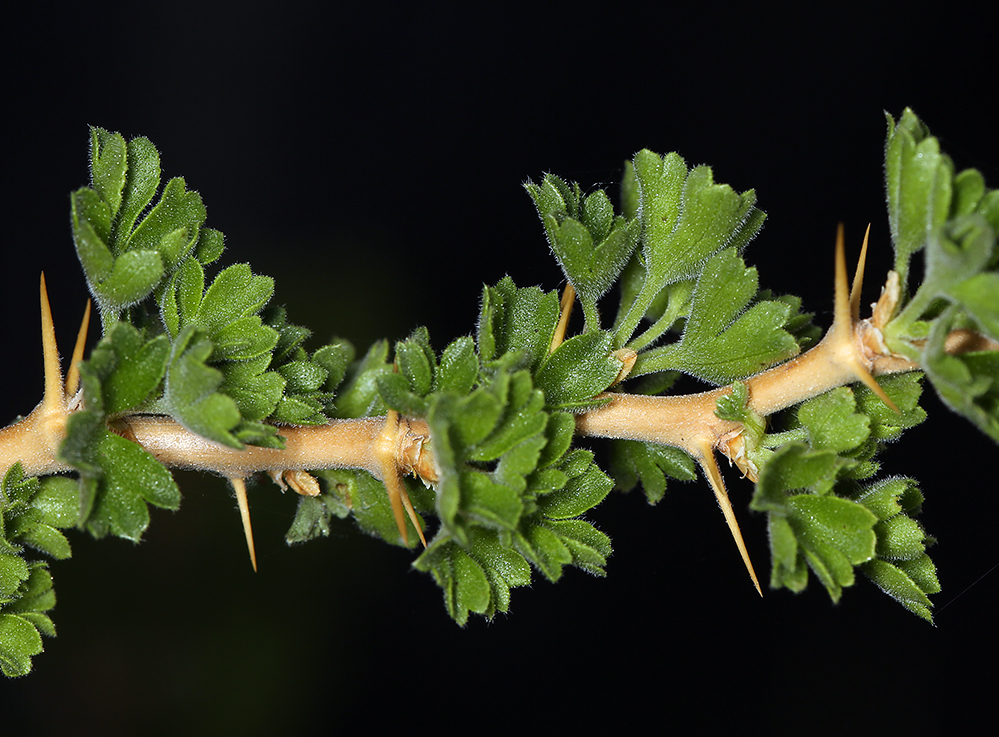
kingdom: Plantae
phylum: Tracheophyta
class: Magnoliopsida
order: Saxifragales
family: Grossulariaceae
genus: Ribes
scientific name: Ribes velutinum
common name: Desert gooseberry
